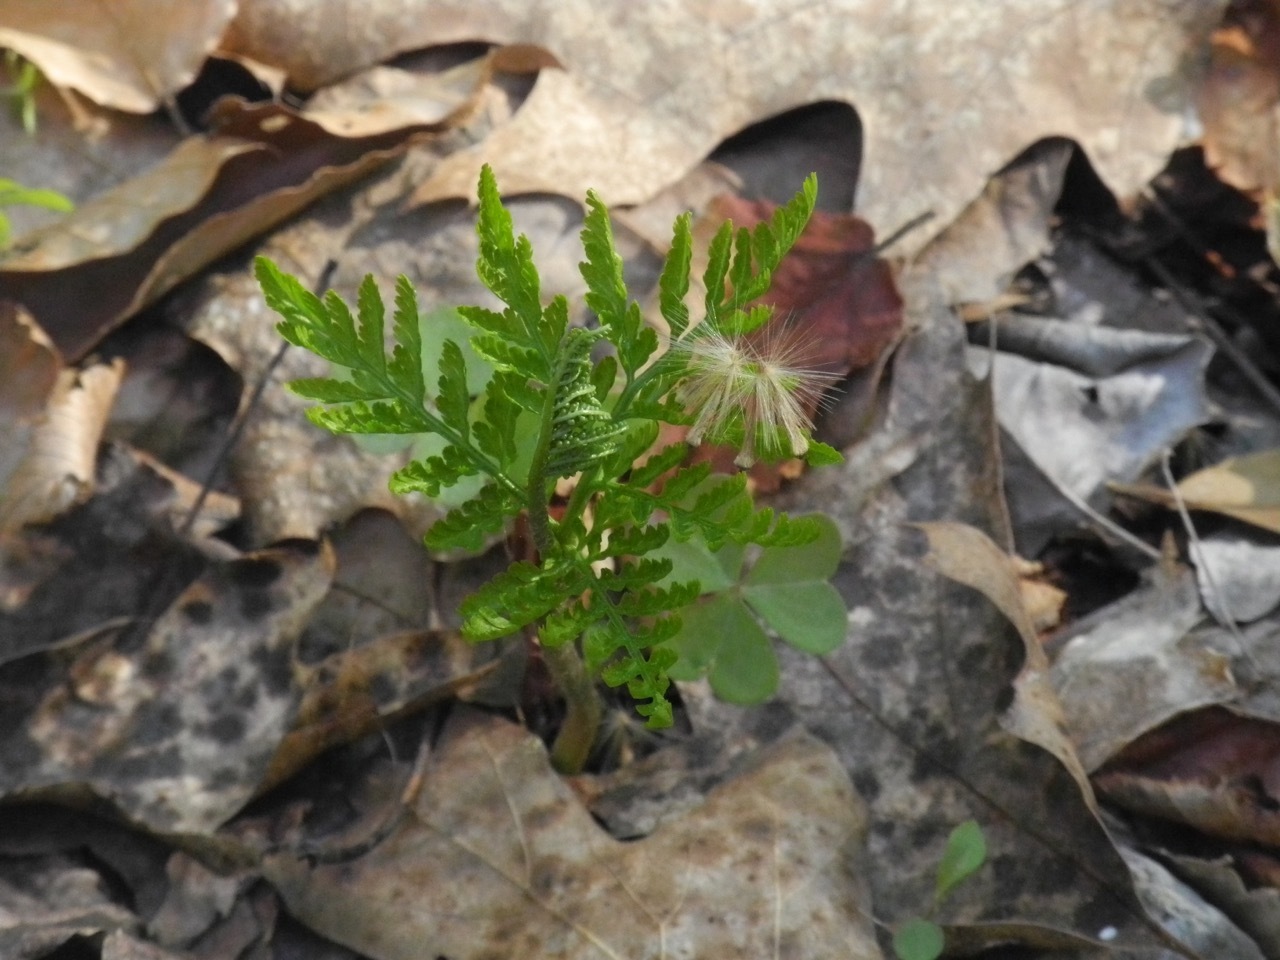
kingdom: Plantae
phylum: Tracheophyta
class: Polypodiopsida
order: Ophioglossales
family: Ophioglossaceae
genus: Botrypus
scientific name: Botrypus virginianus
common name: Common grapefern
